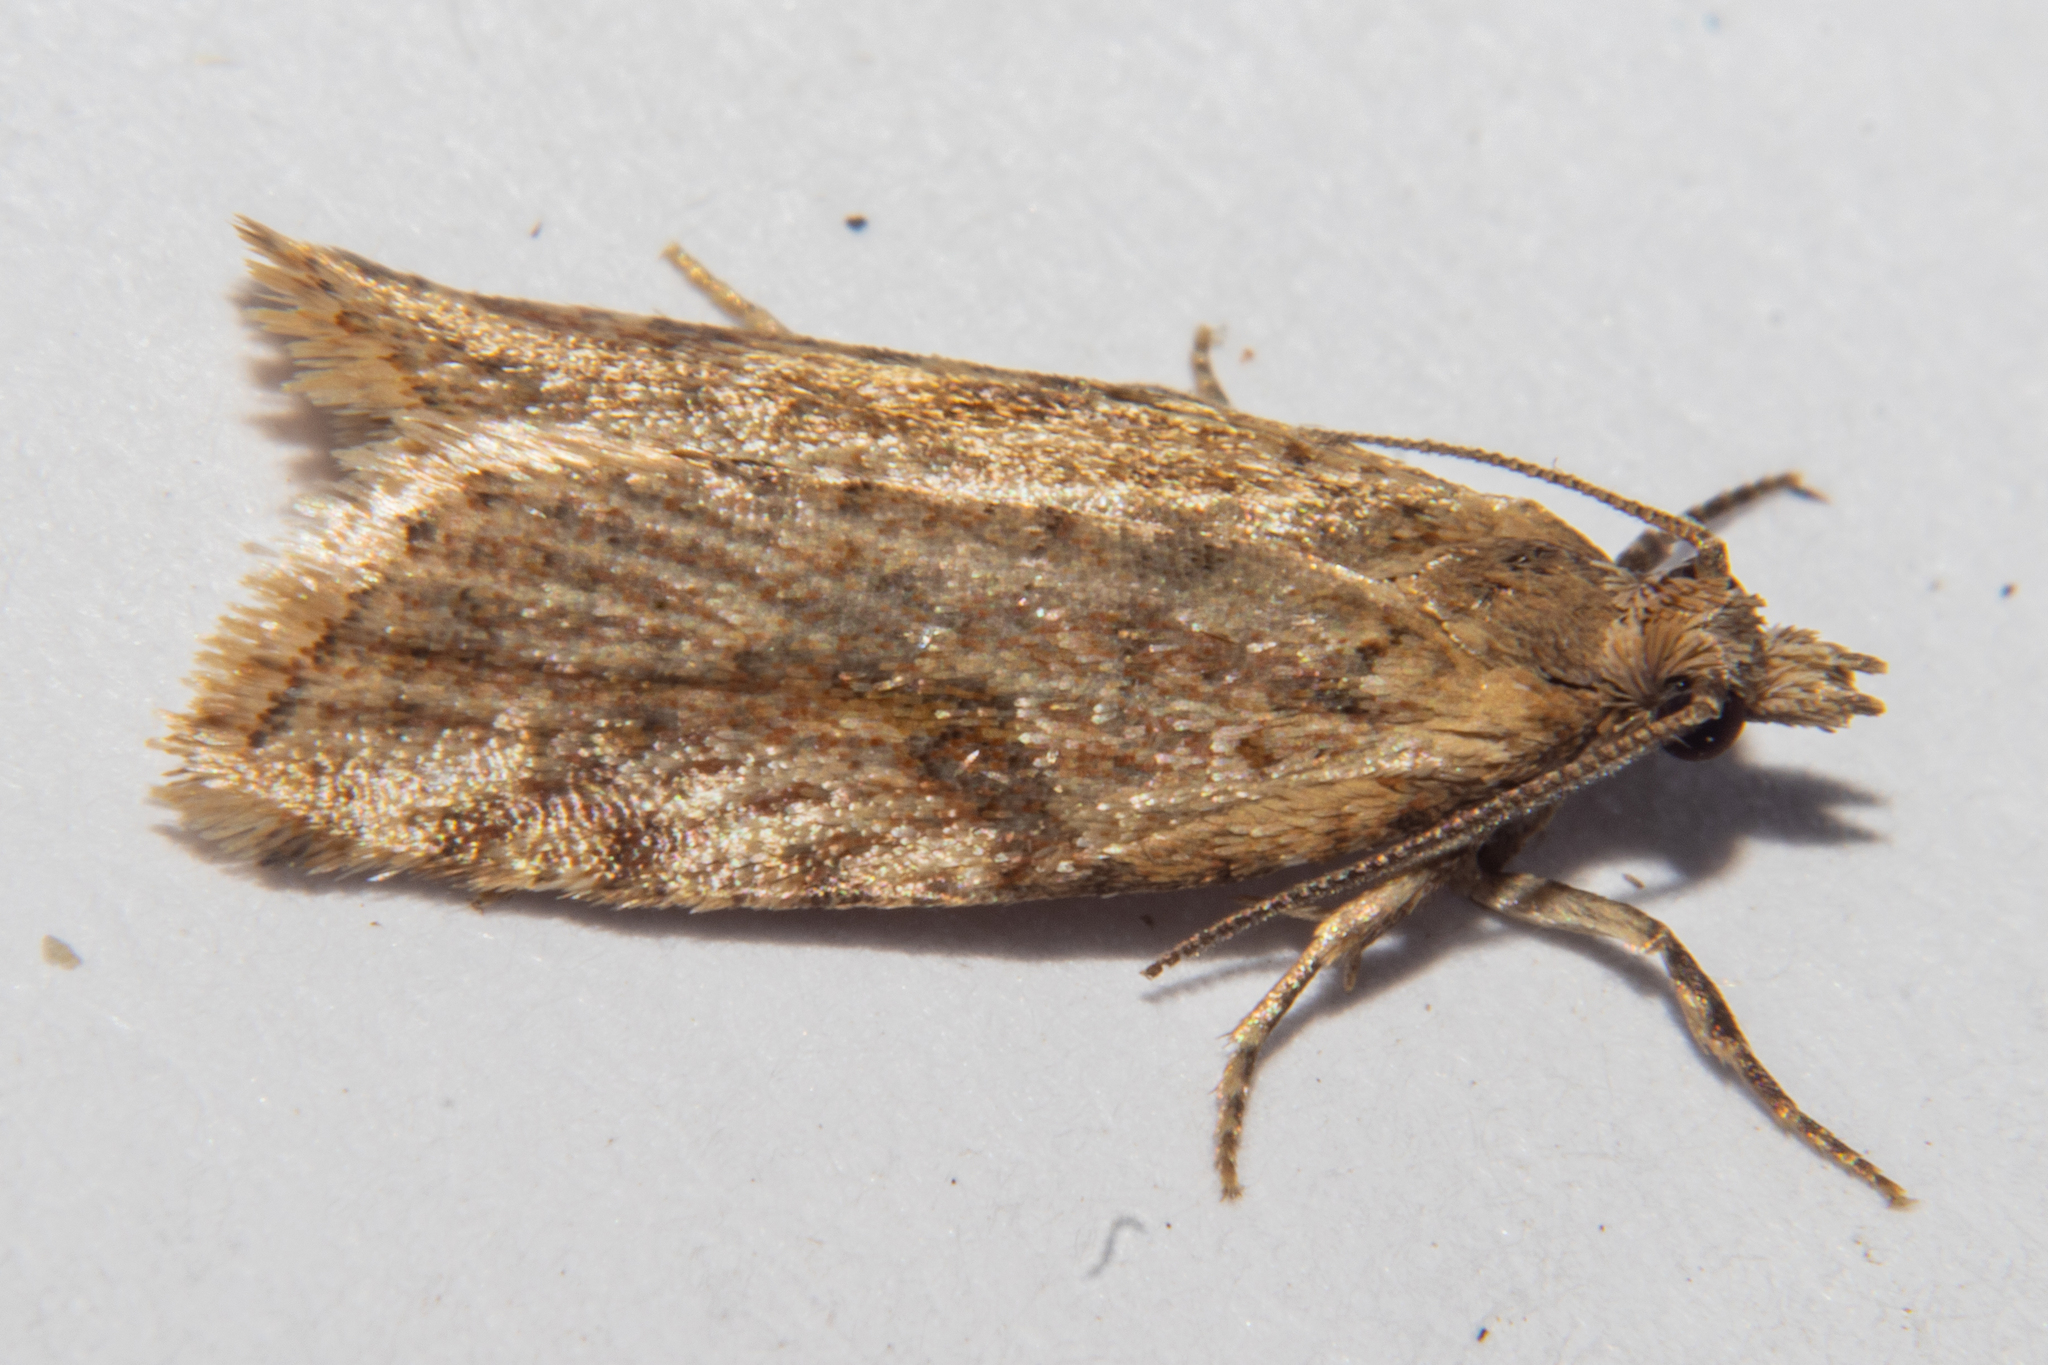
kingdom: Animalia
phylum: Arthropoda
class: Insecta
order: Lepidoptera
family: Tortricidae
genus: Capua
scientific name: Capua semiferana
